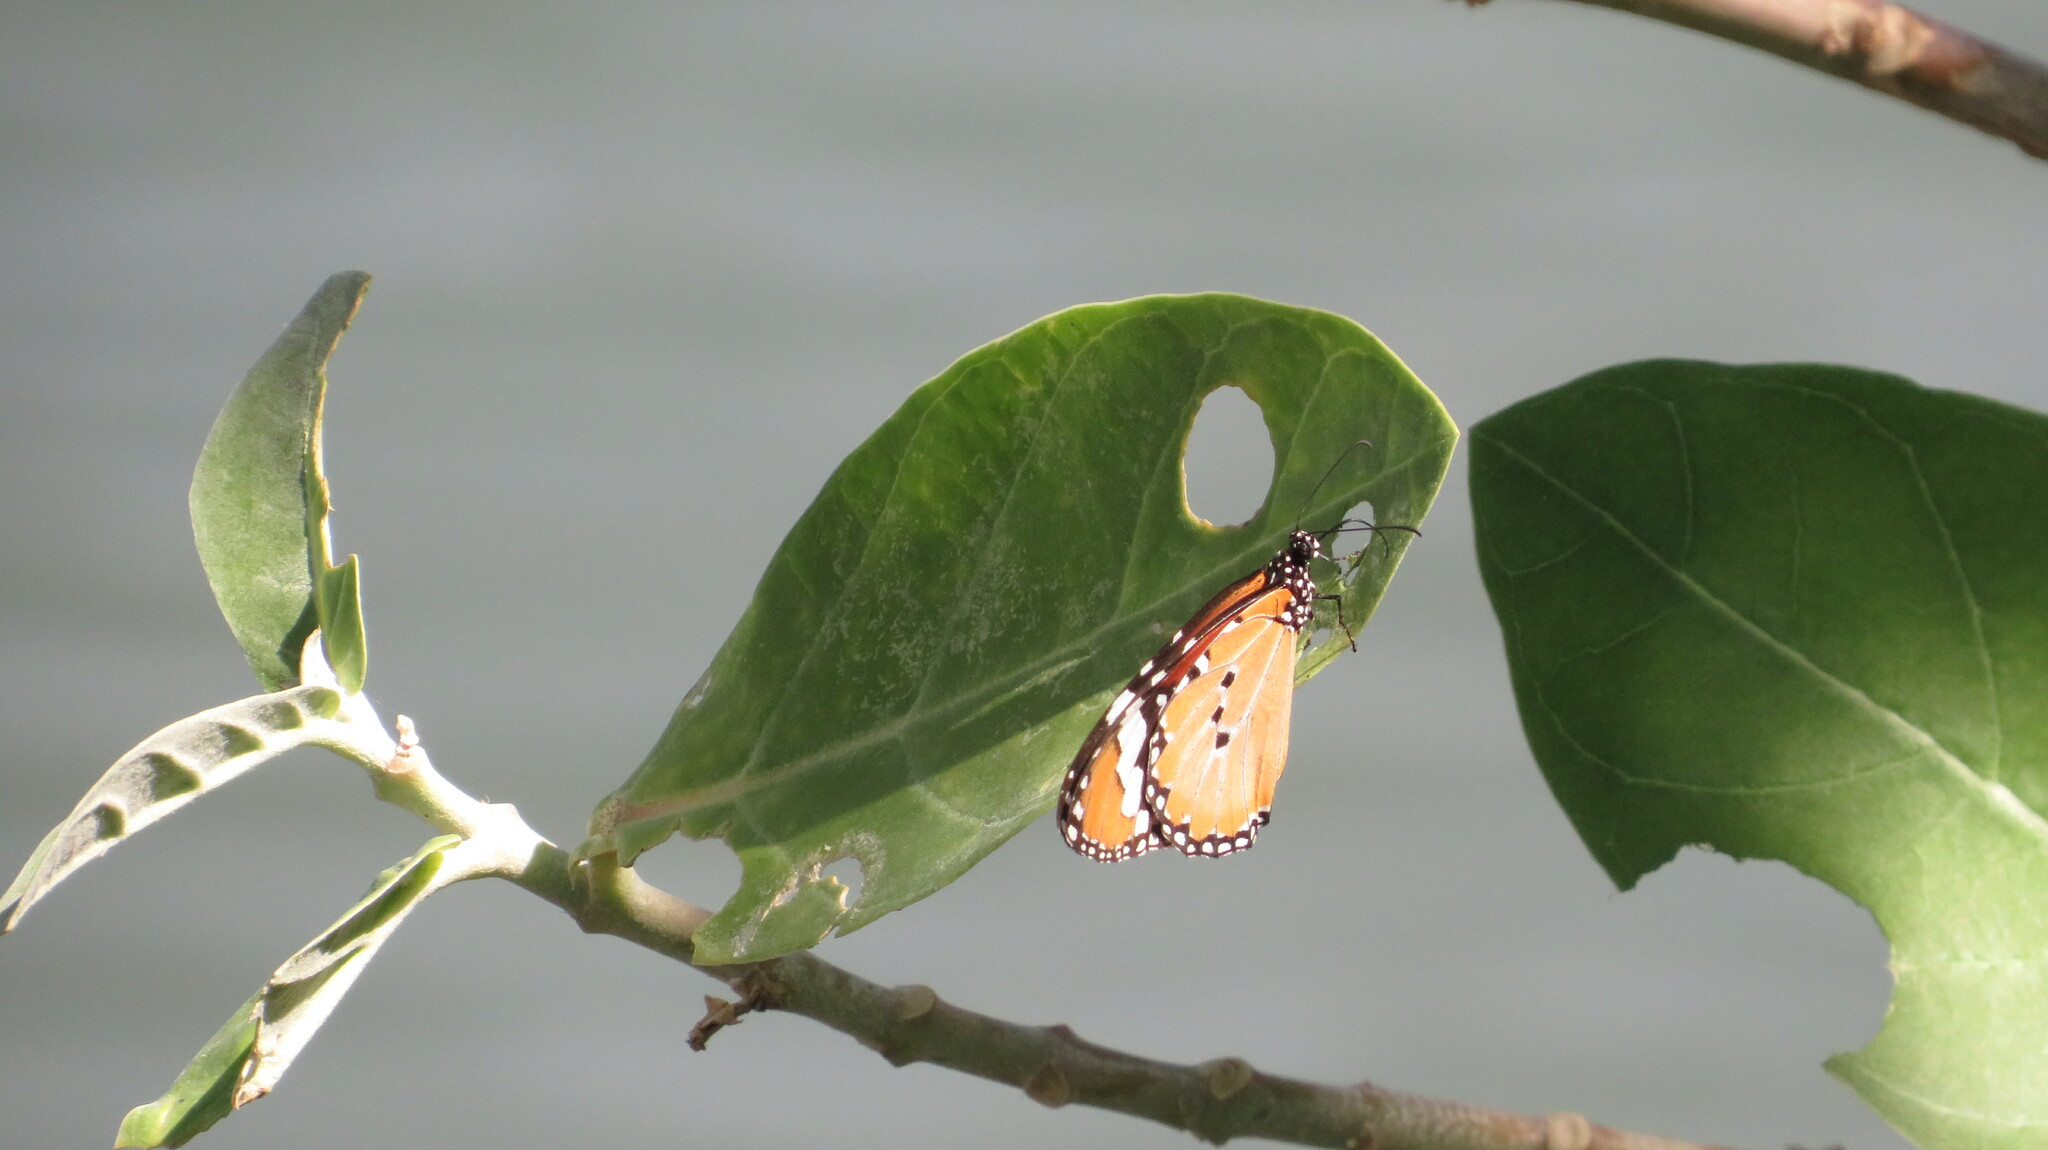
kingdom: Animalia
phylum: Arthropoda
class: Insecta
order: Lepidoptera
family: Nymphalidae
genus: Danaus
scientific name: Danaus chrysippus
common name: Plain tiger
